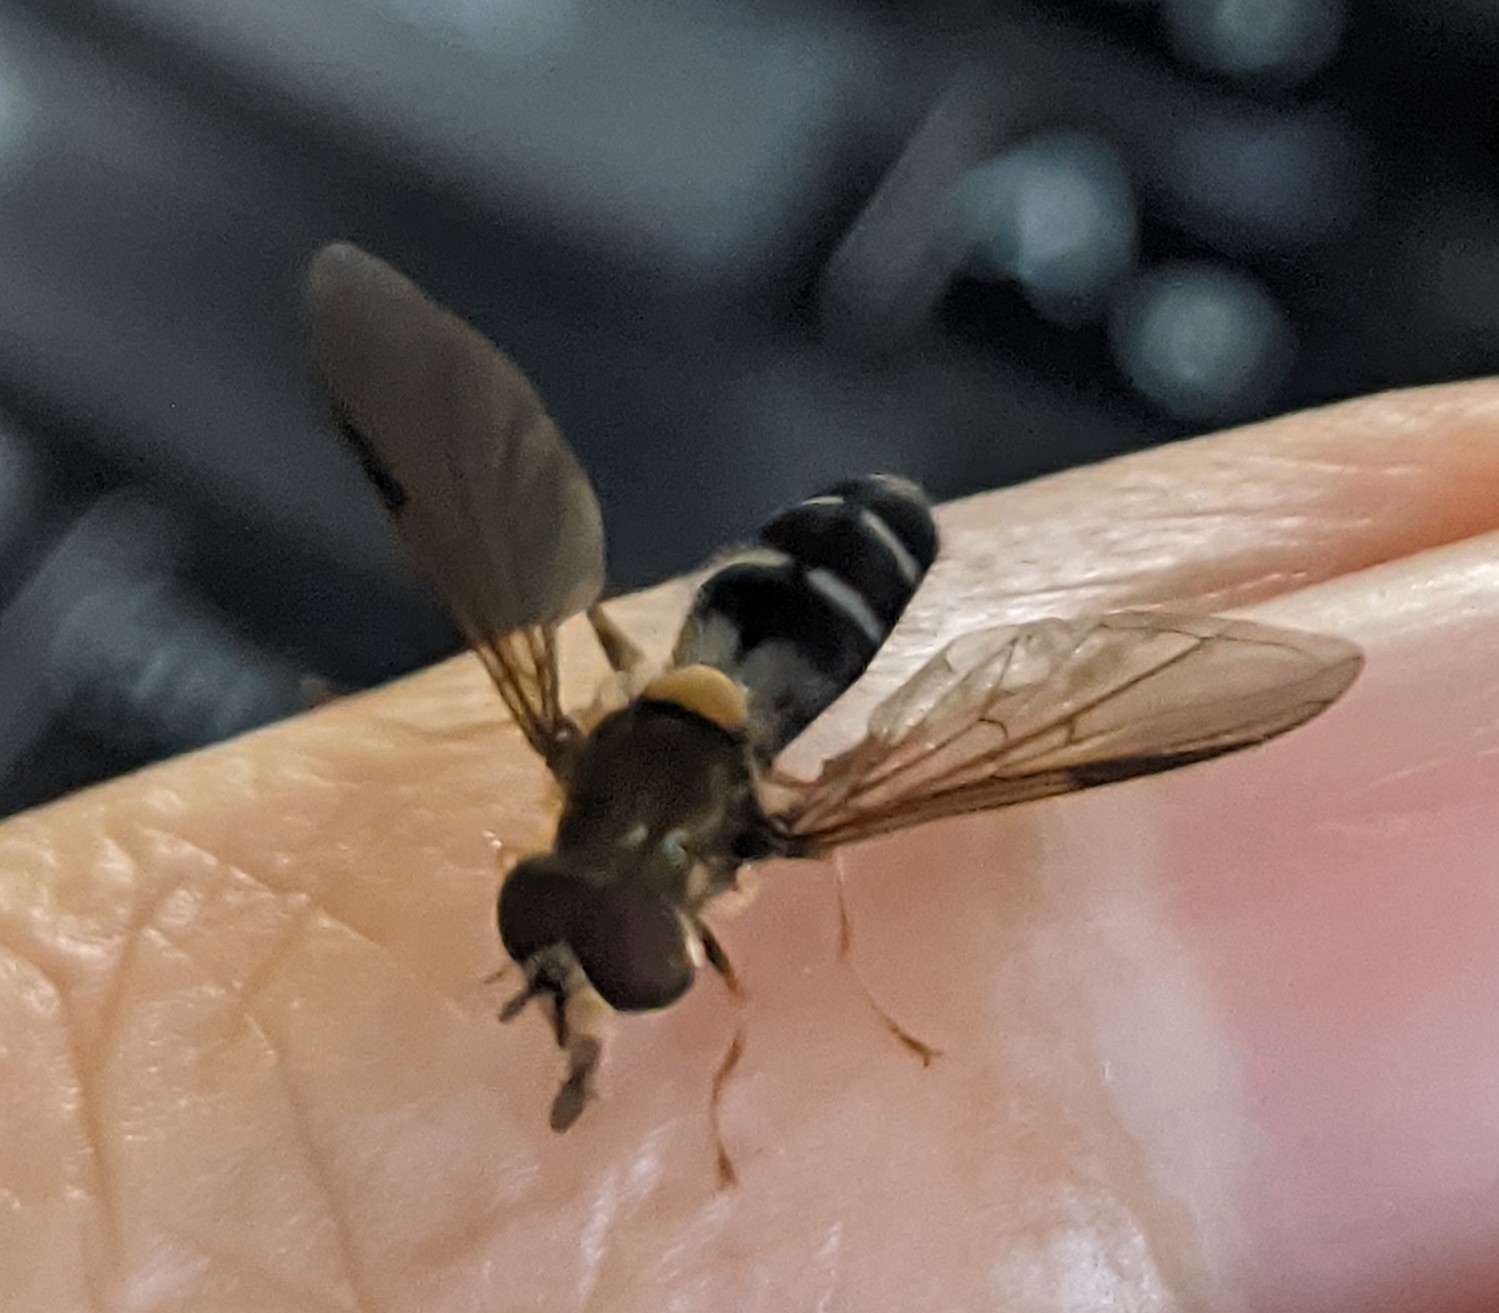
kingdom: Animalia
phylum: Arthropoda
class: Insecta
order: Diptera
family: Syrphidae
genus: Leucozona
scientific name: Leucozona glaucia
